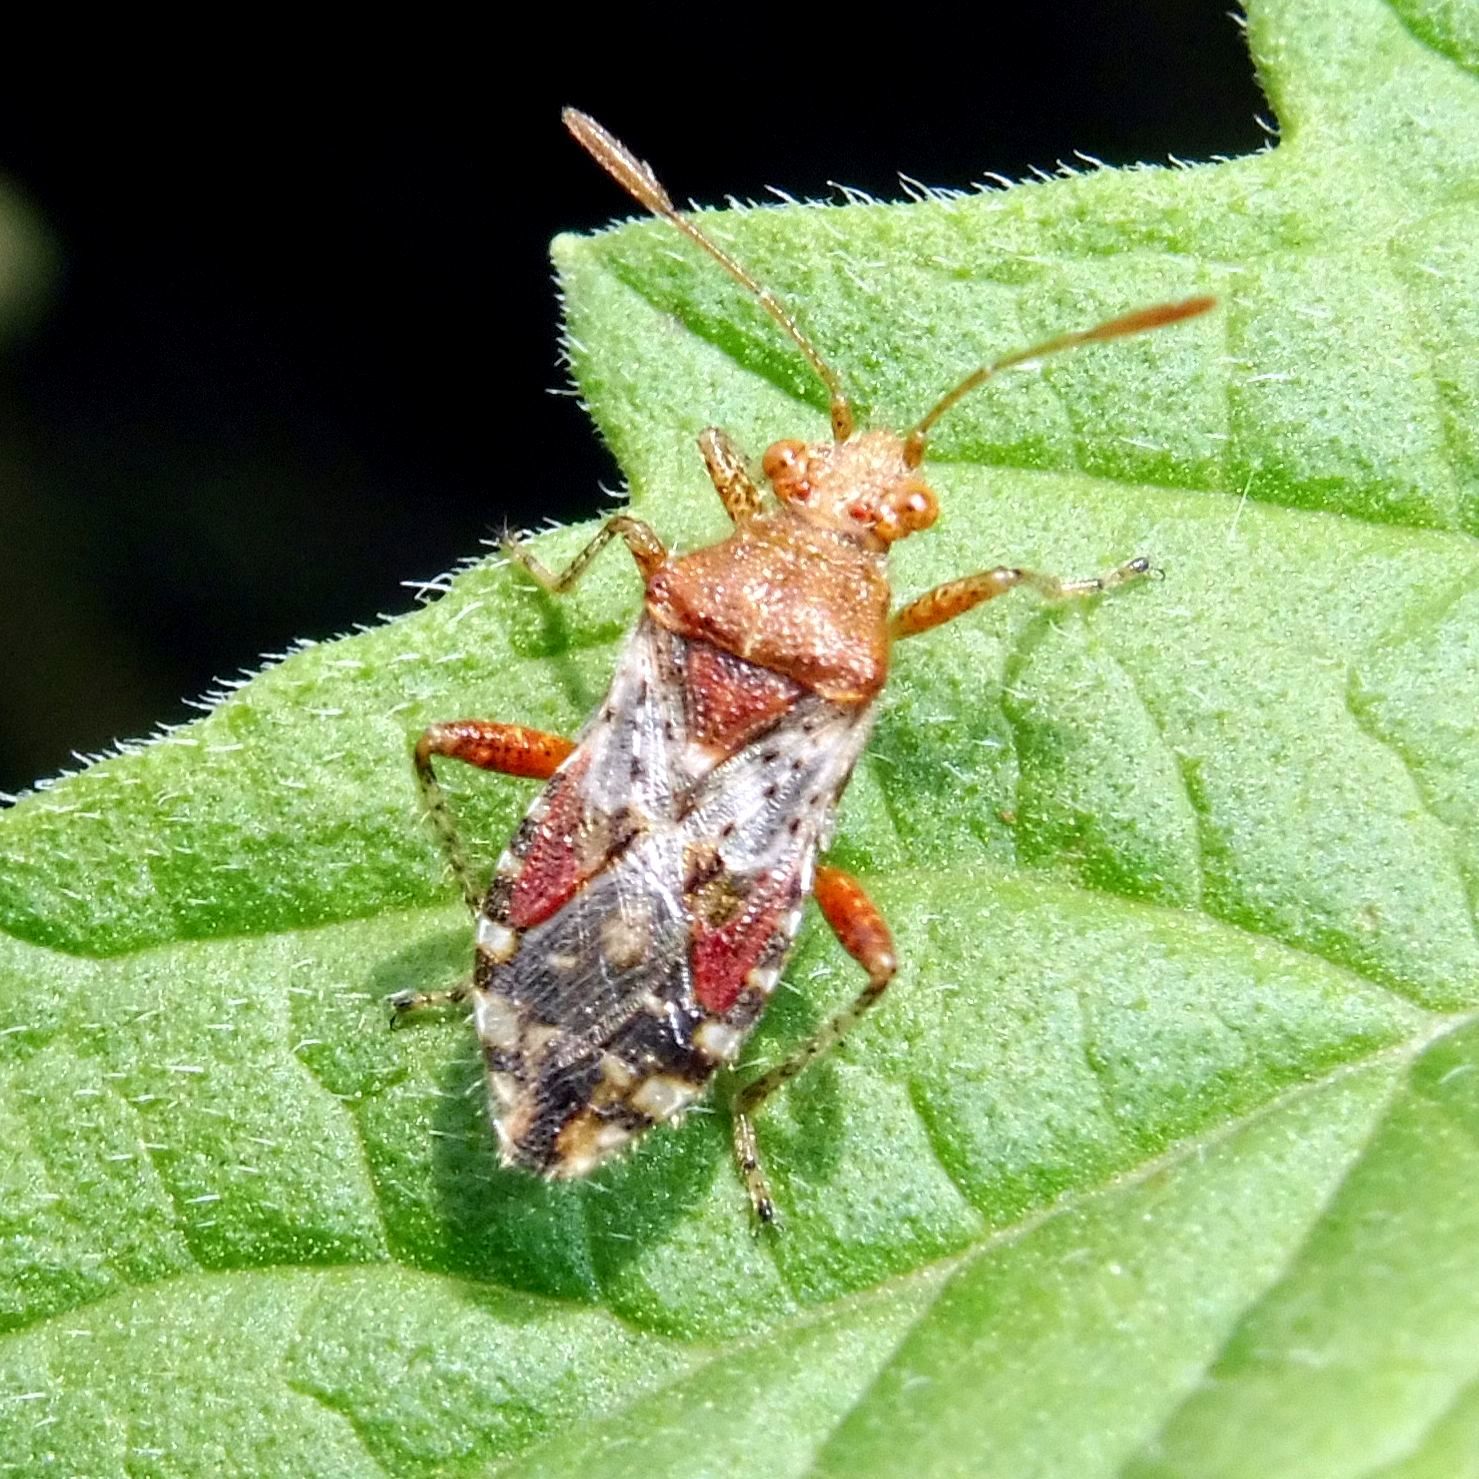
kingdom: Animalia
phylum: Arthropoda
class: Insecta
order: Hemiptera
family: Rhopalidae
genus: Rhopalus
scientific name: Rhopalus subrufus
